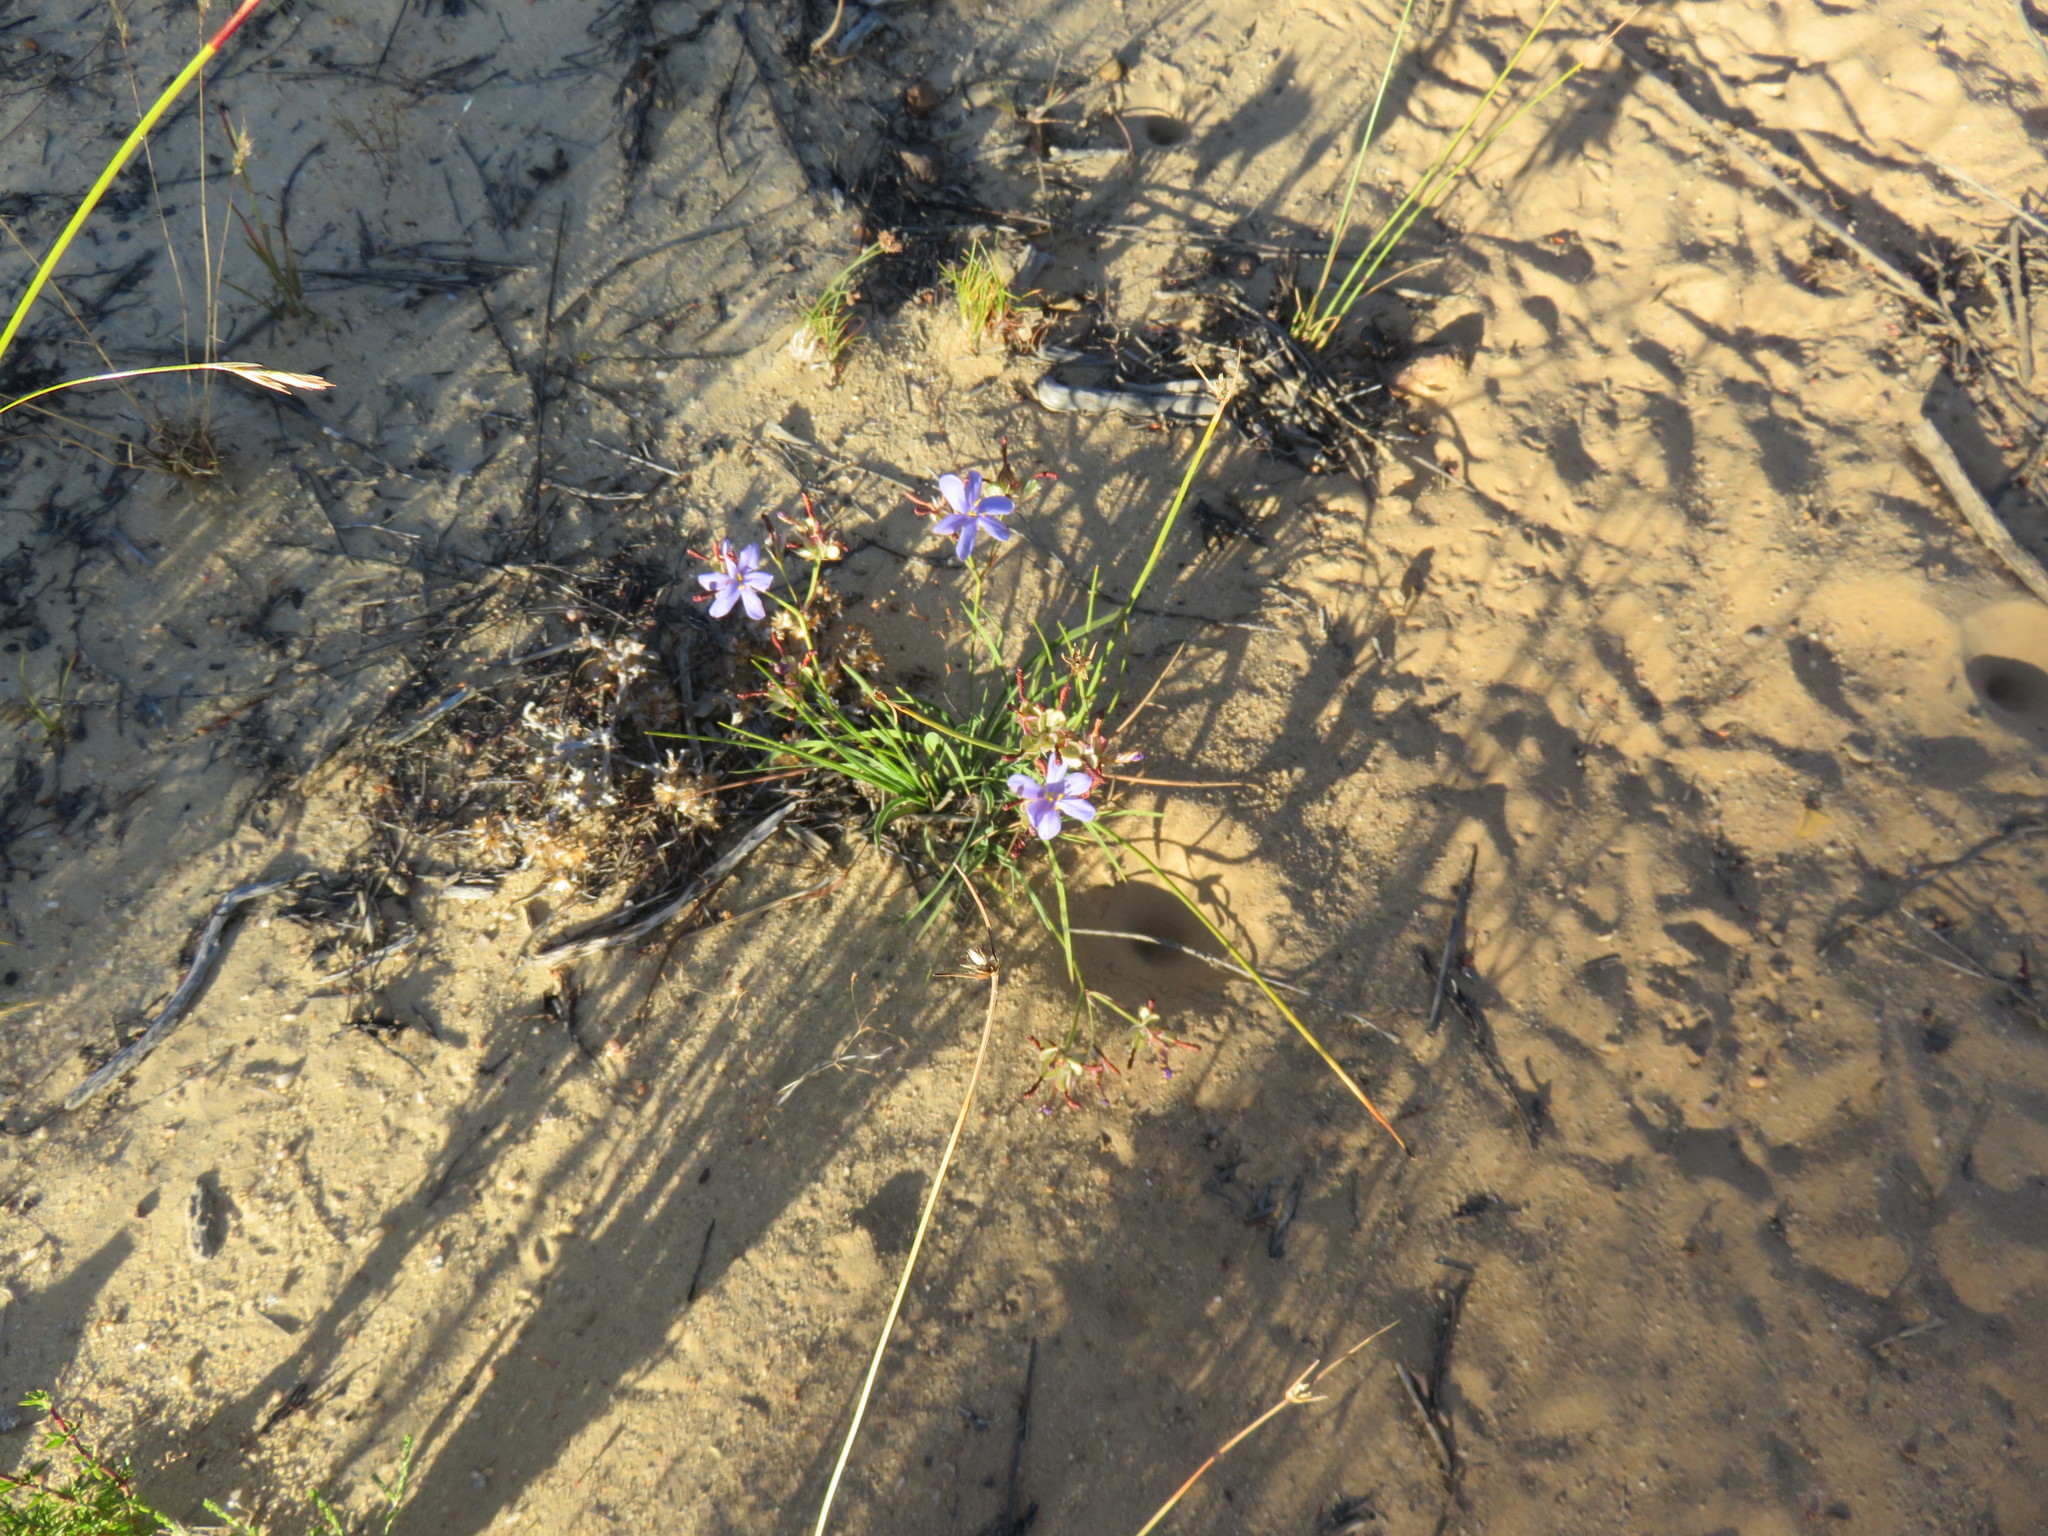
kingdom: Plantae
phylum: Tracheophyta
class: Liliopsida
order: Asparagales
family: Iridaceae
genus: Aristea
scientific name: Aristea dichotoma
